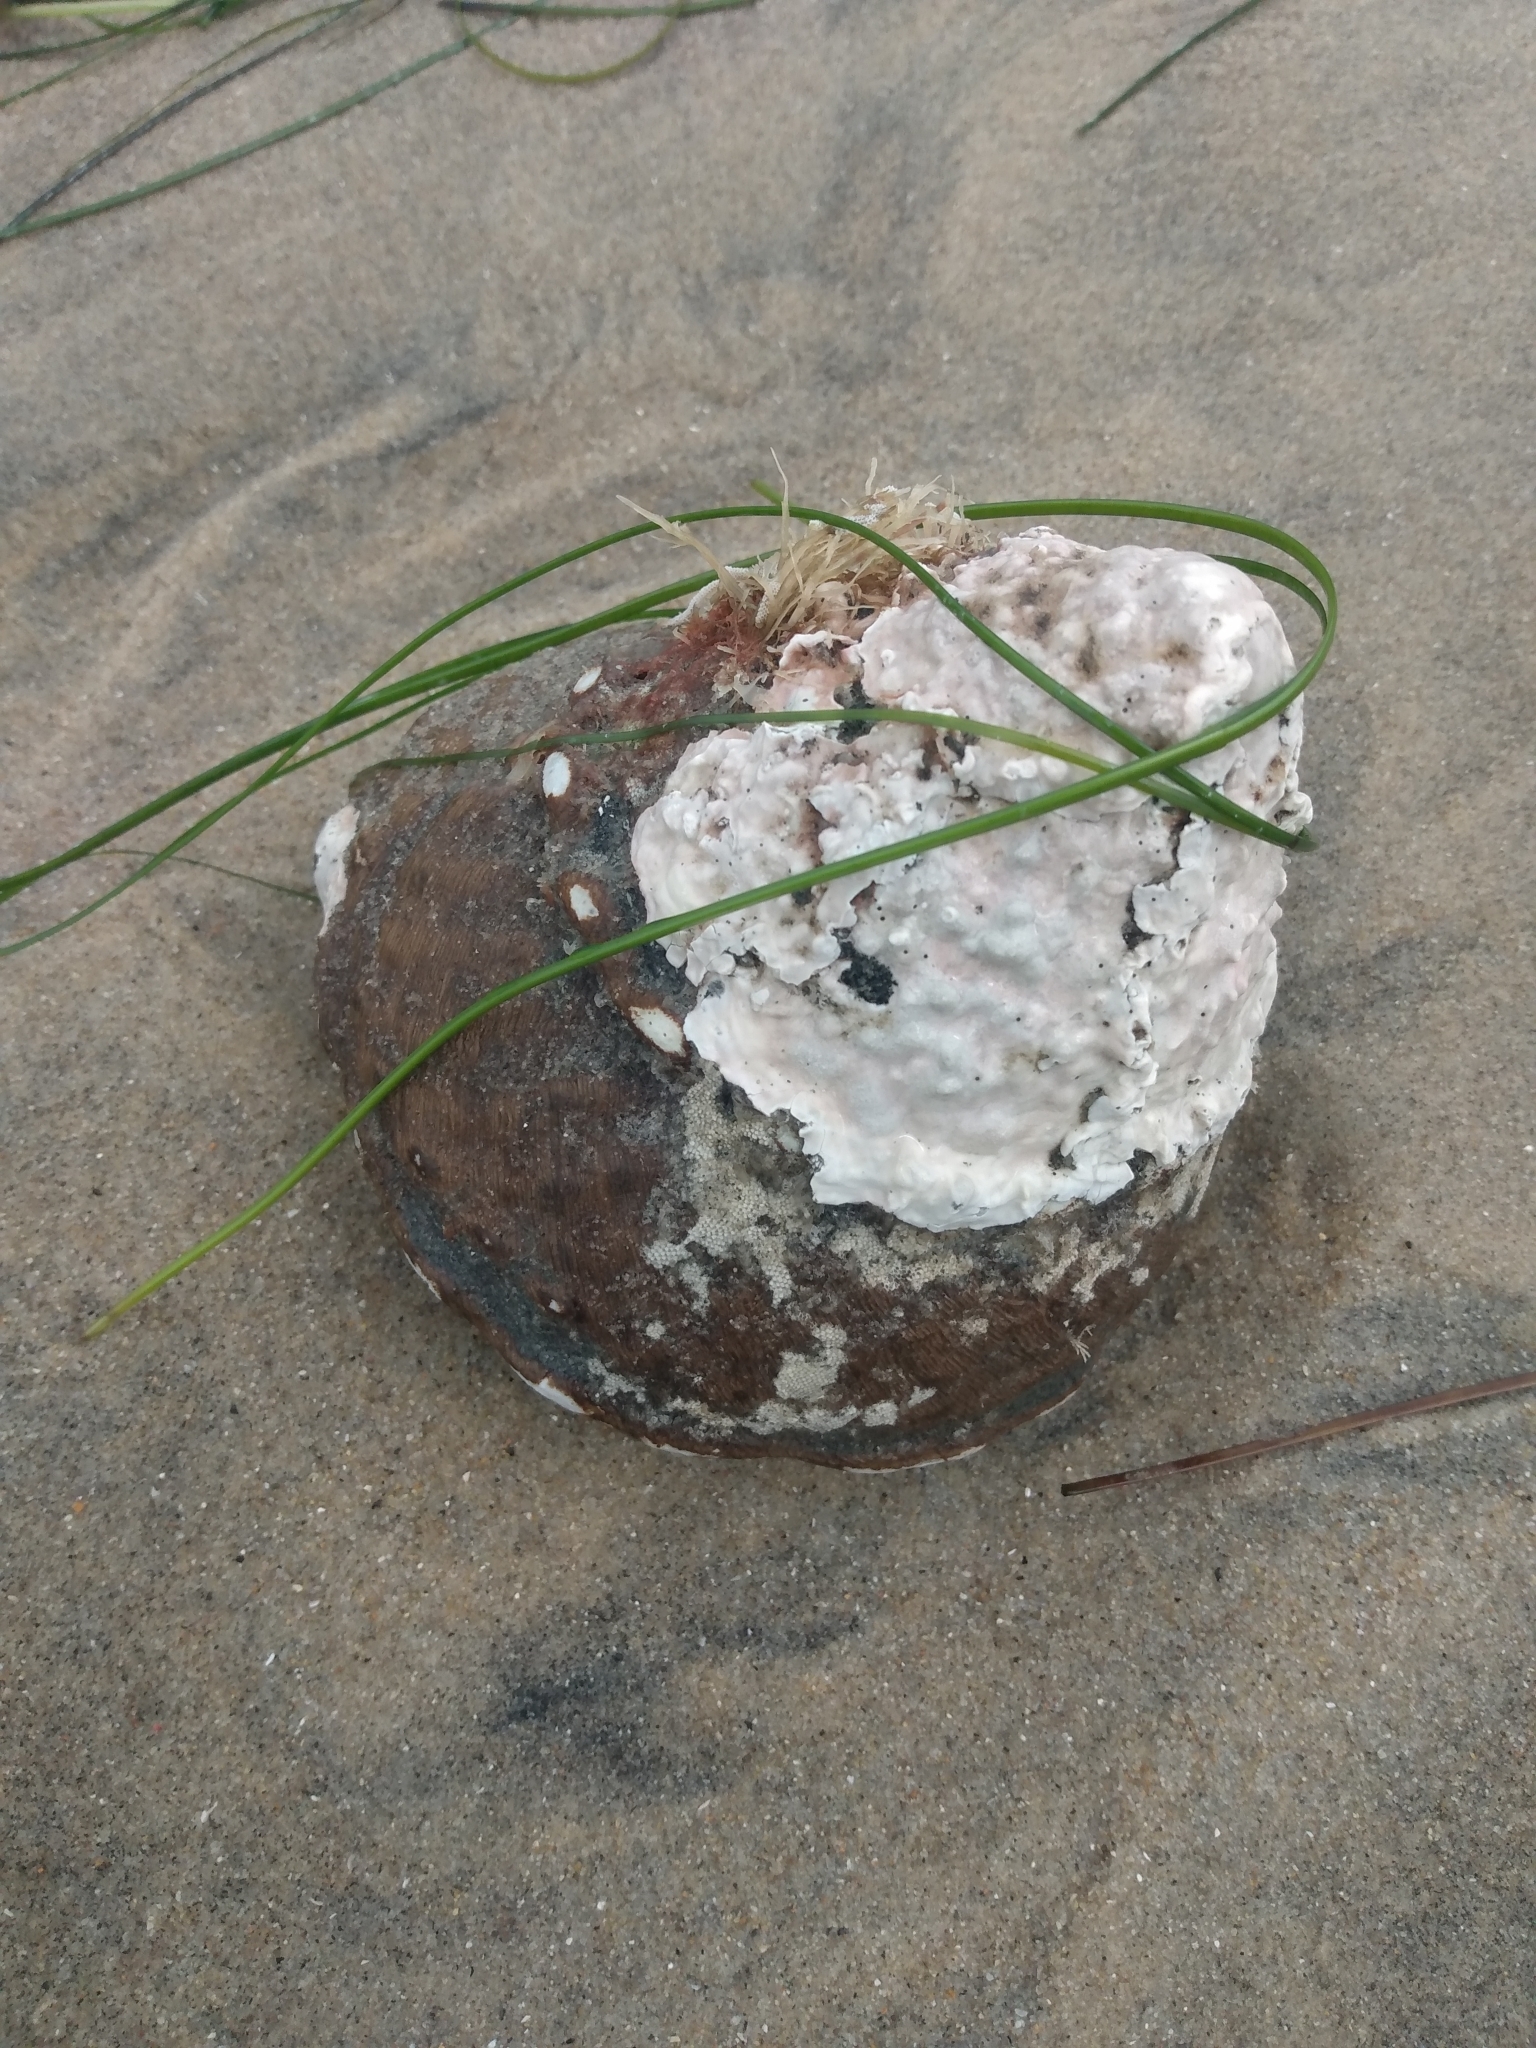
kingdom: Animalia
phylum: Mollusca
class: Gastropoda
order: Trochida
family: Turbinidae
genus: Megastraea
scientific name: Megastraea undosa
